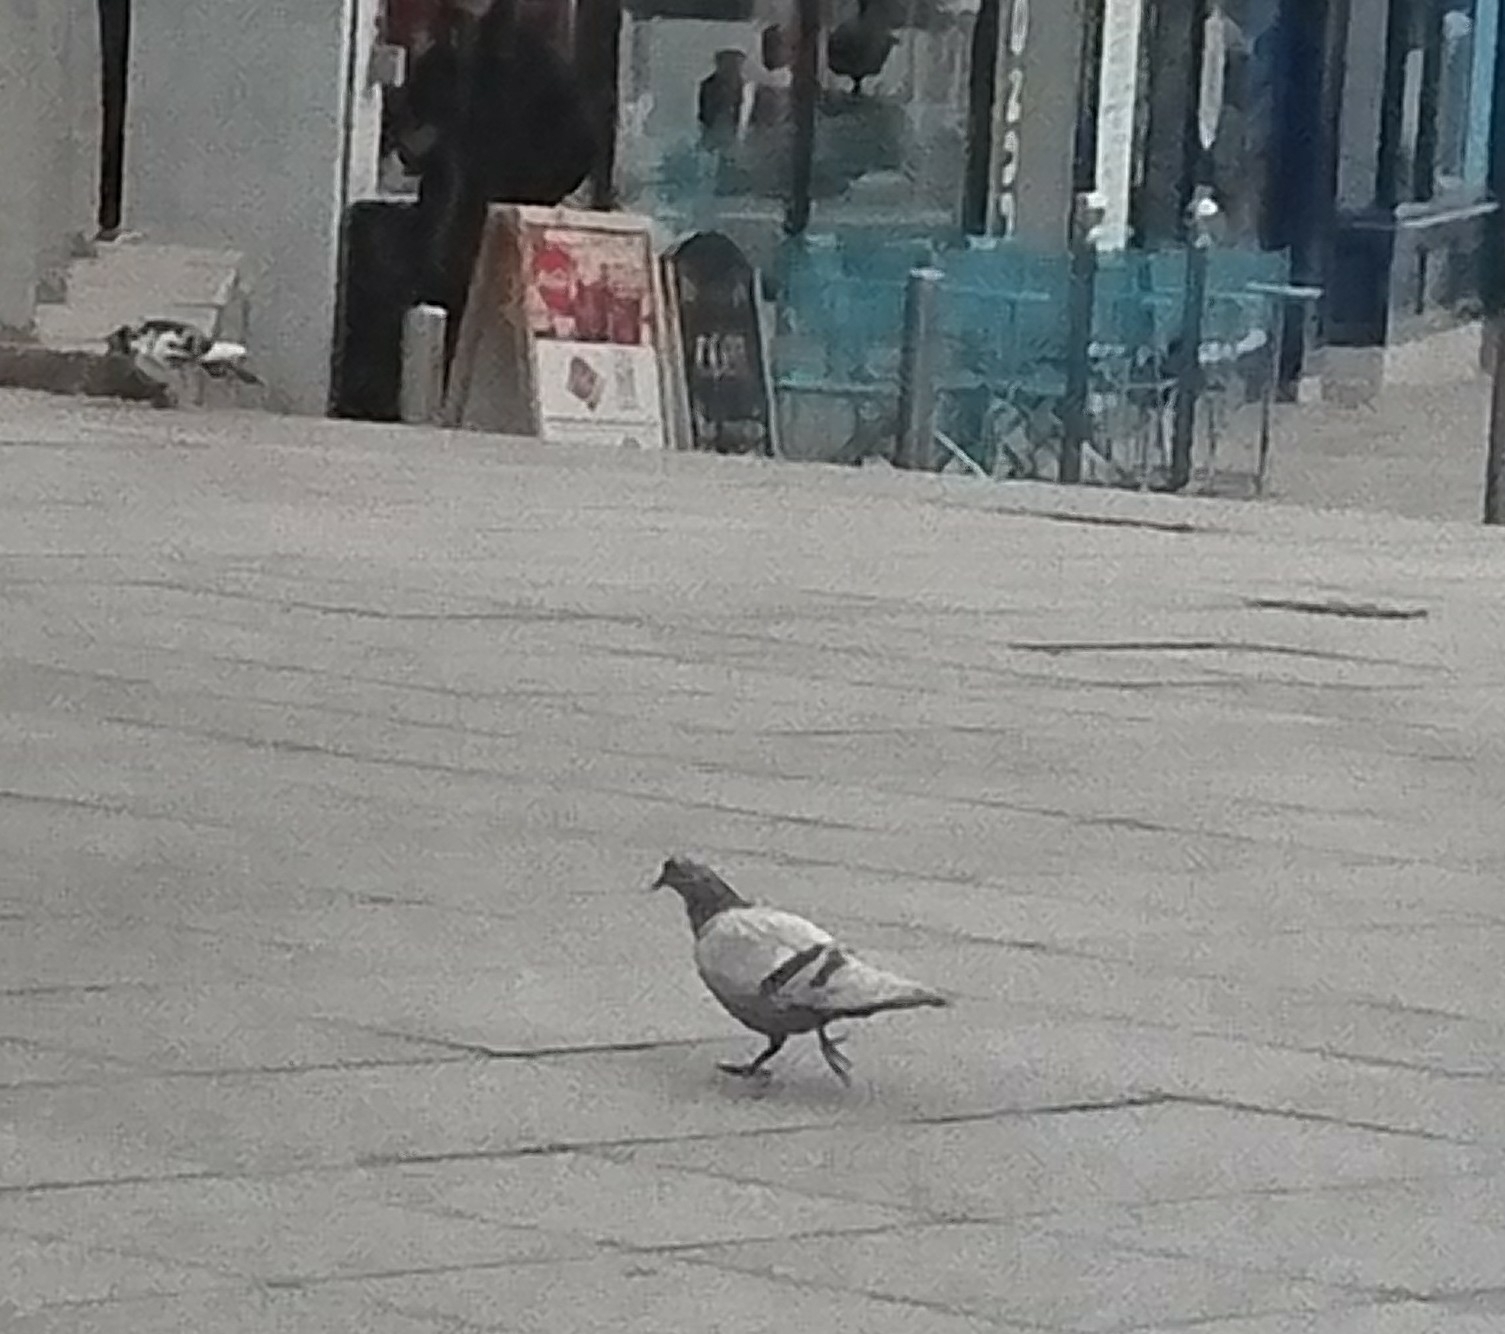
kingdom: Animalia
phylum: Chordata
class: Aves
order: Columbiformes
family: Columbidae
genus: Columba
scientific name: Columba livia
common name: Rock pigeon
